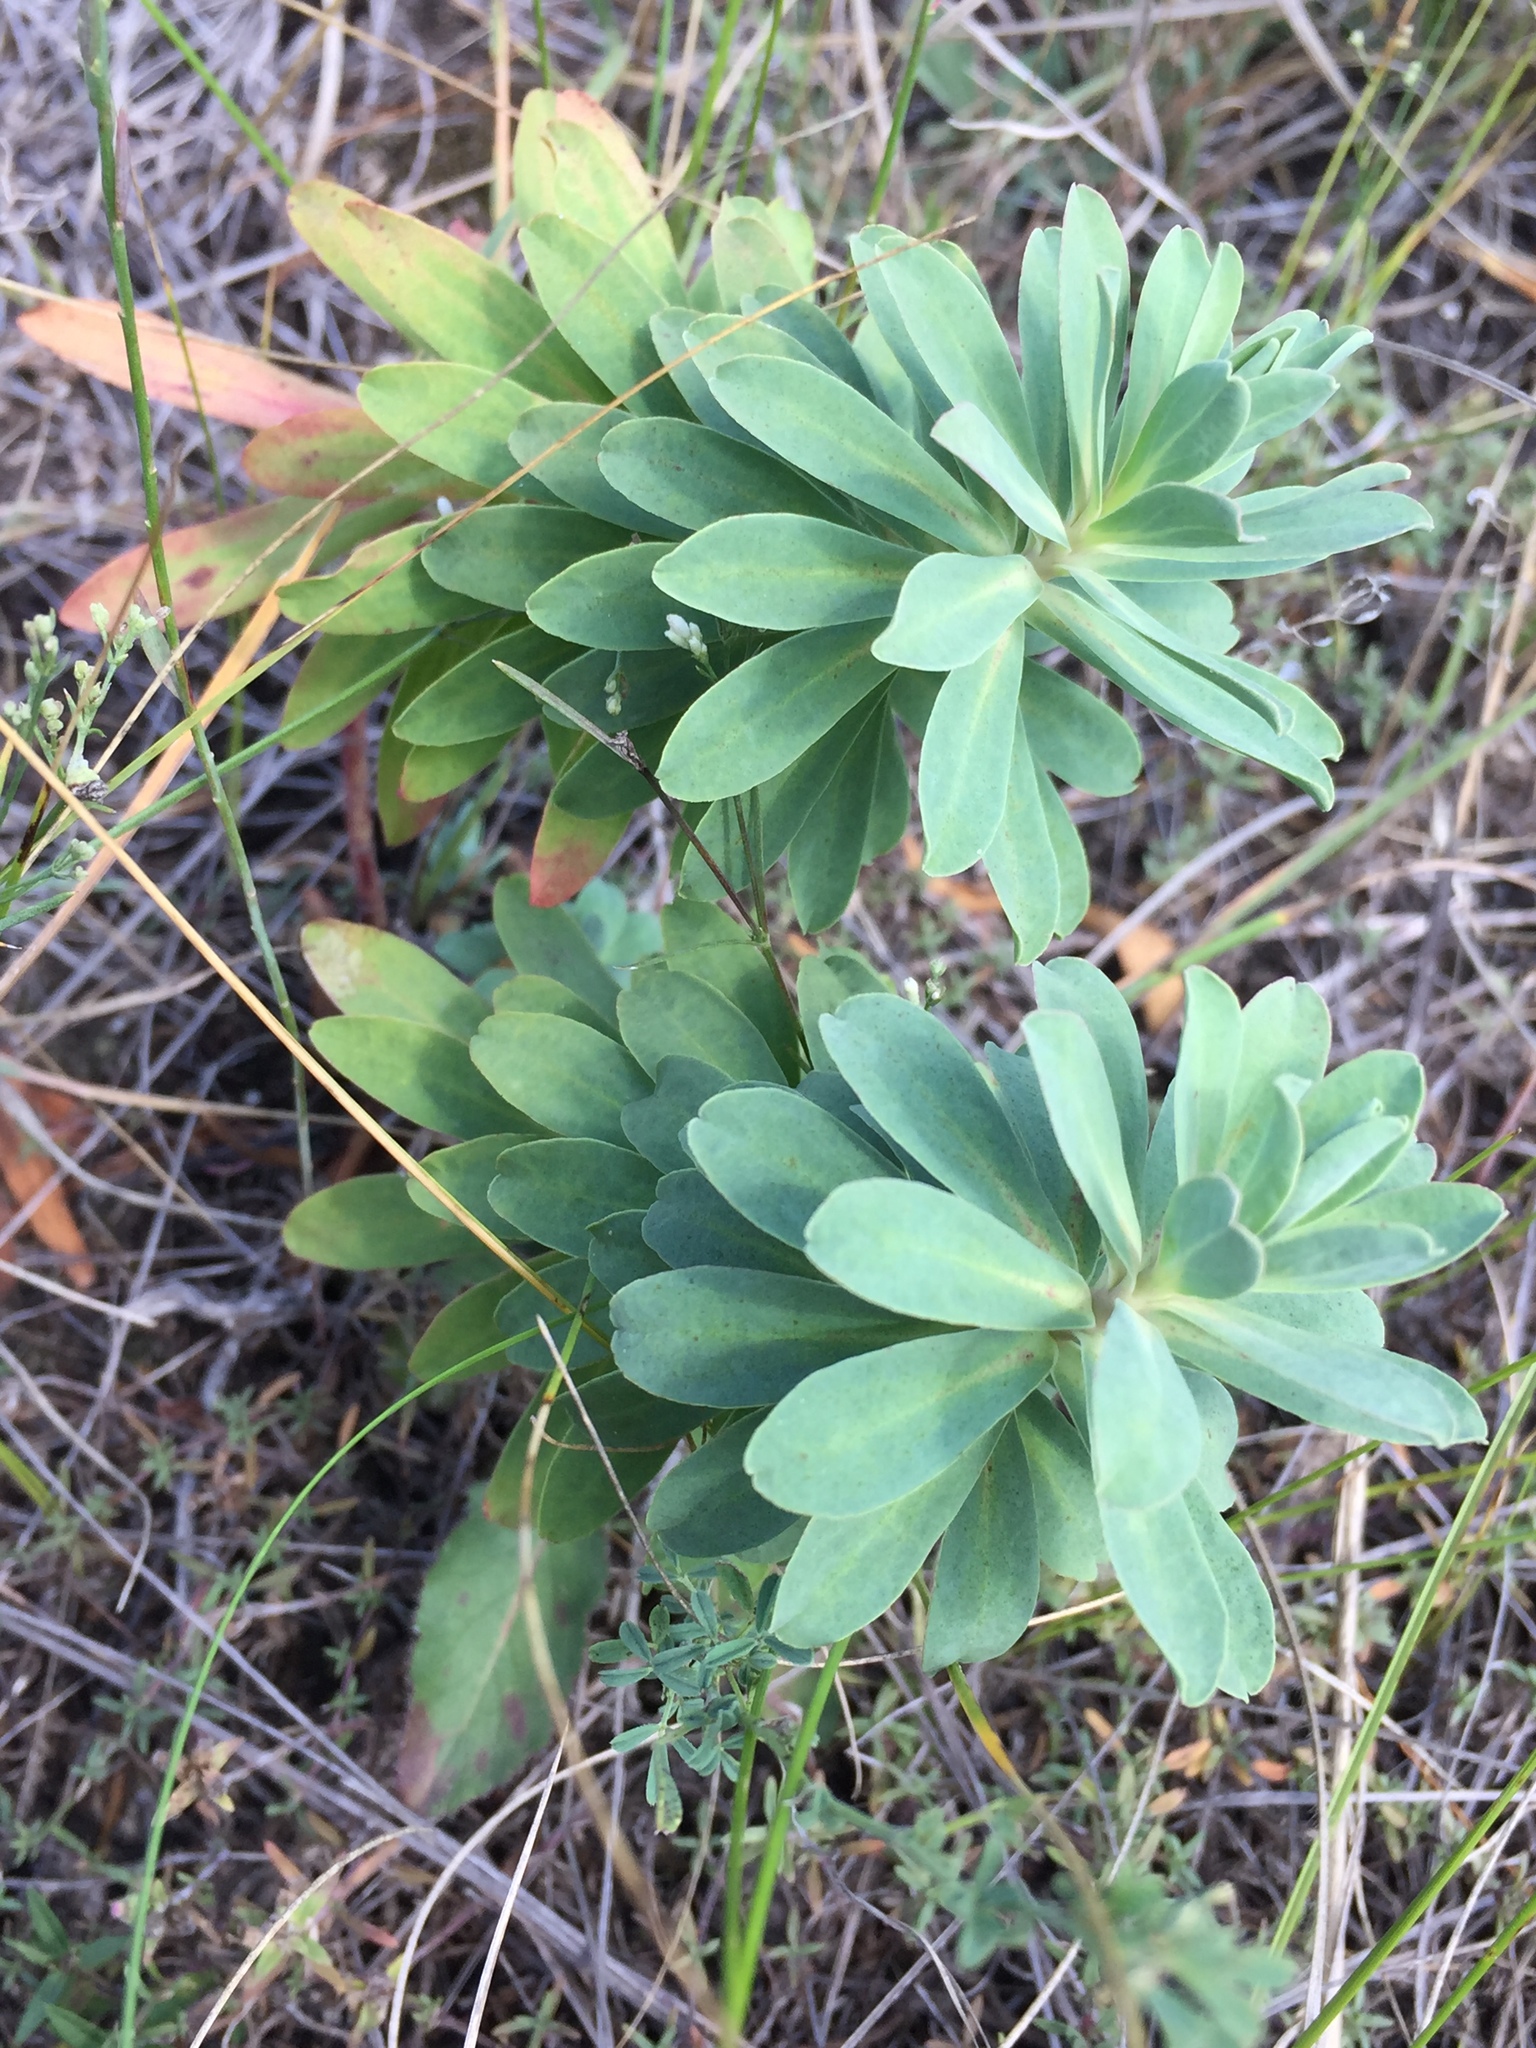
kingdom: Plantae
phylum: Tracheophyta
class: Magnoliopsida
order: Malpighiales
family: Euphorbiaceae
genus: Euphorbia
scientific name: Euphorbia stepposa
